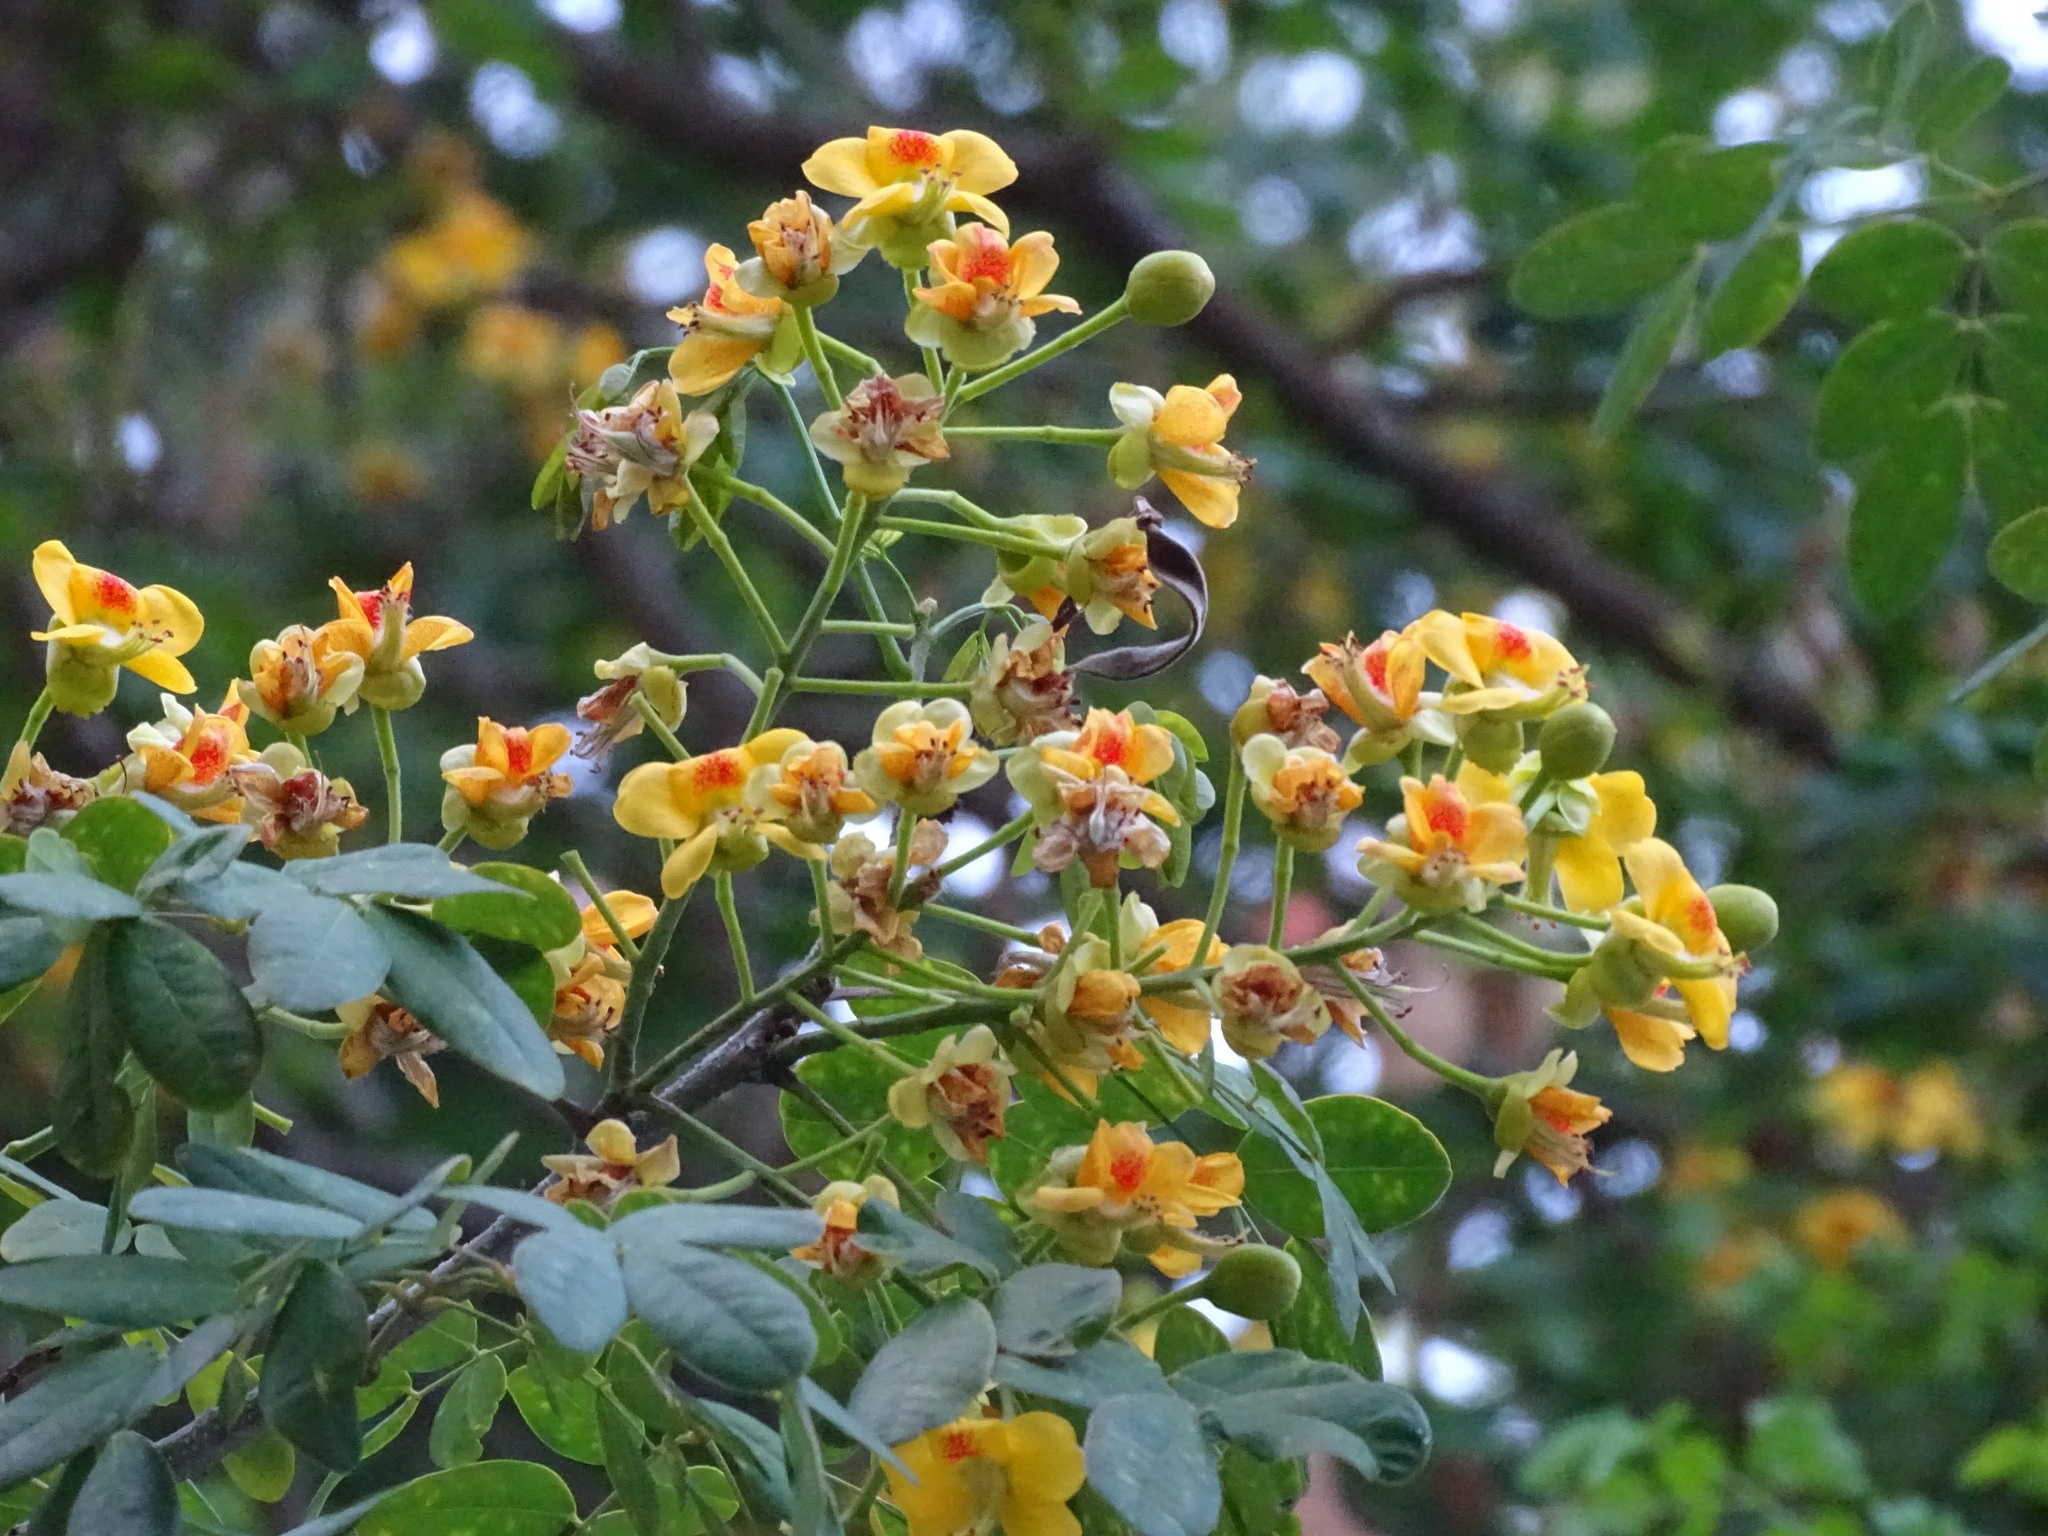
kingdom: Plantae
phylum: Tracheophyta
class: Magnoliopsida
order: Fabales
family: Fabaceae
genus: Erythrostemon
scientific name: Erythrostemon yucatanensis
